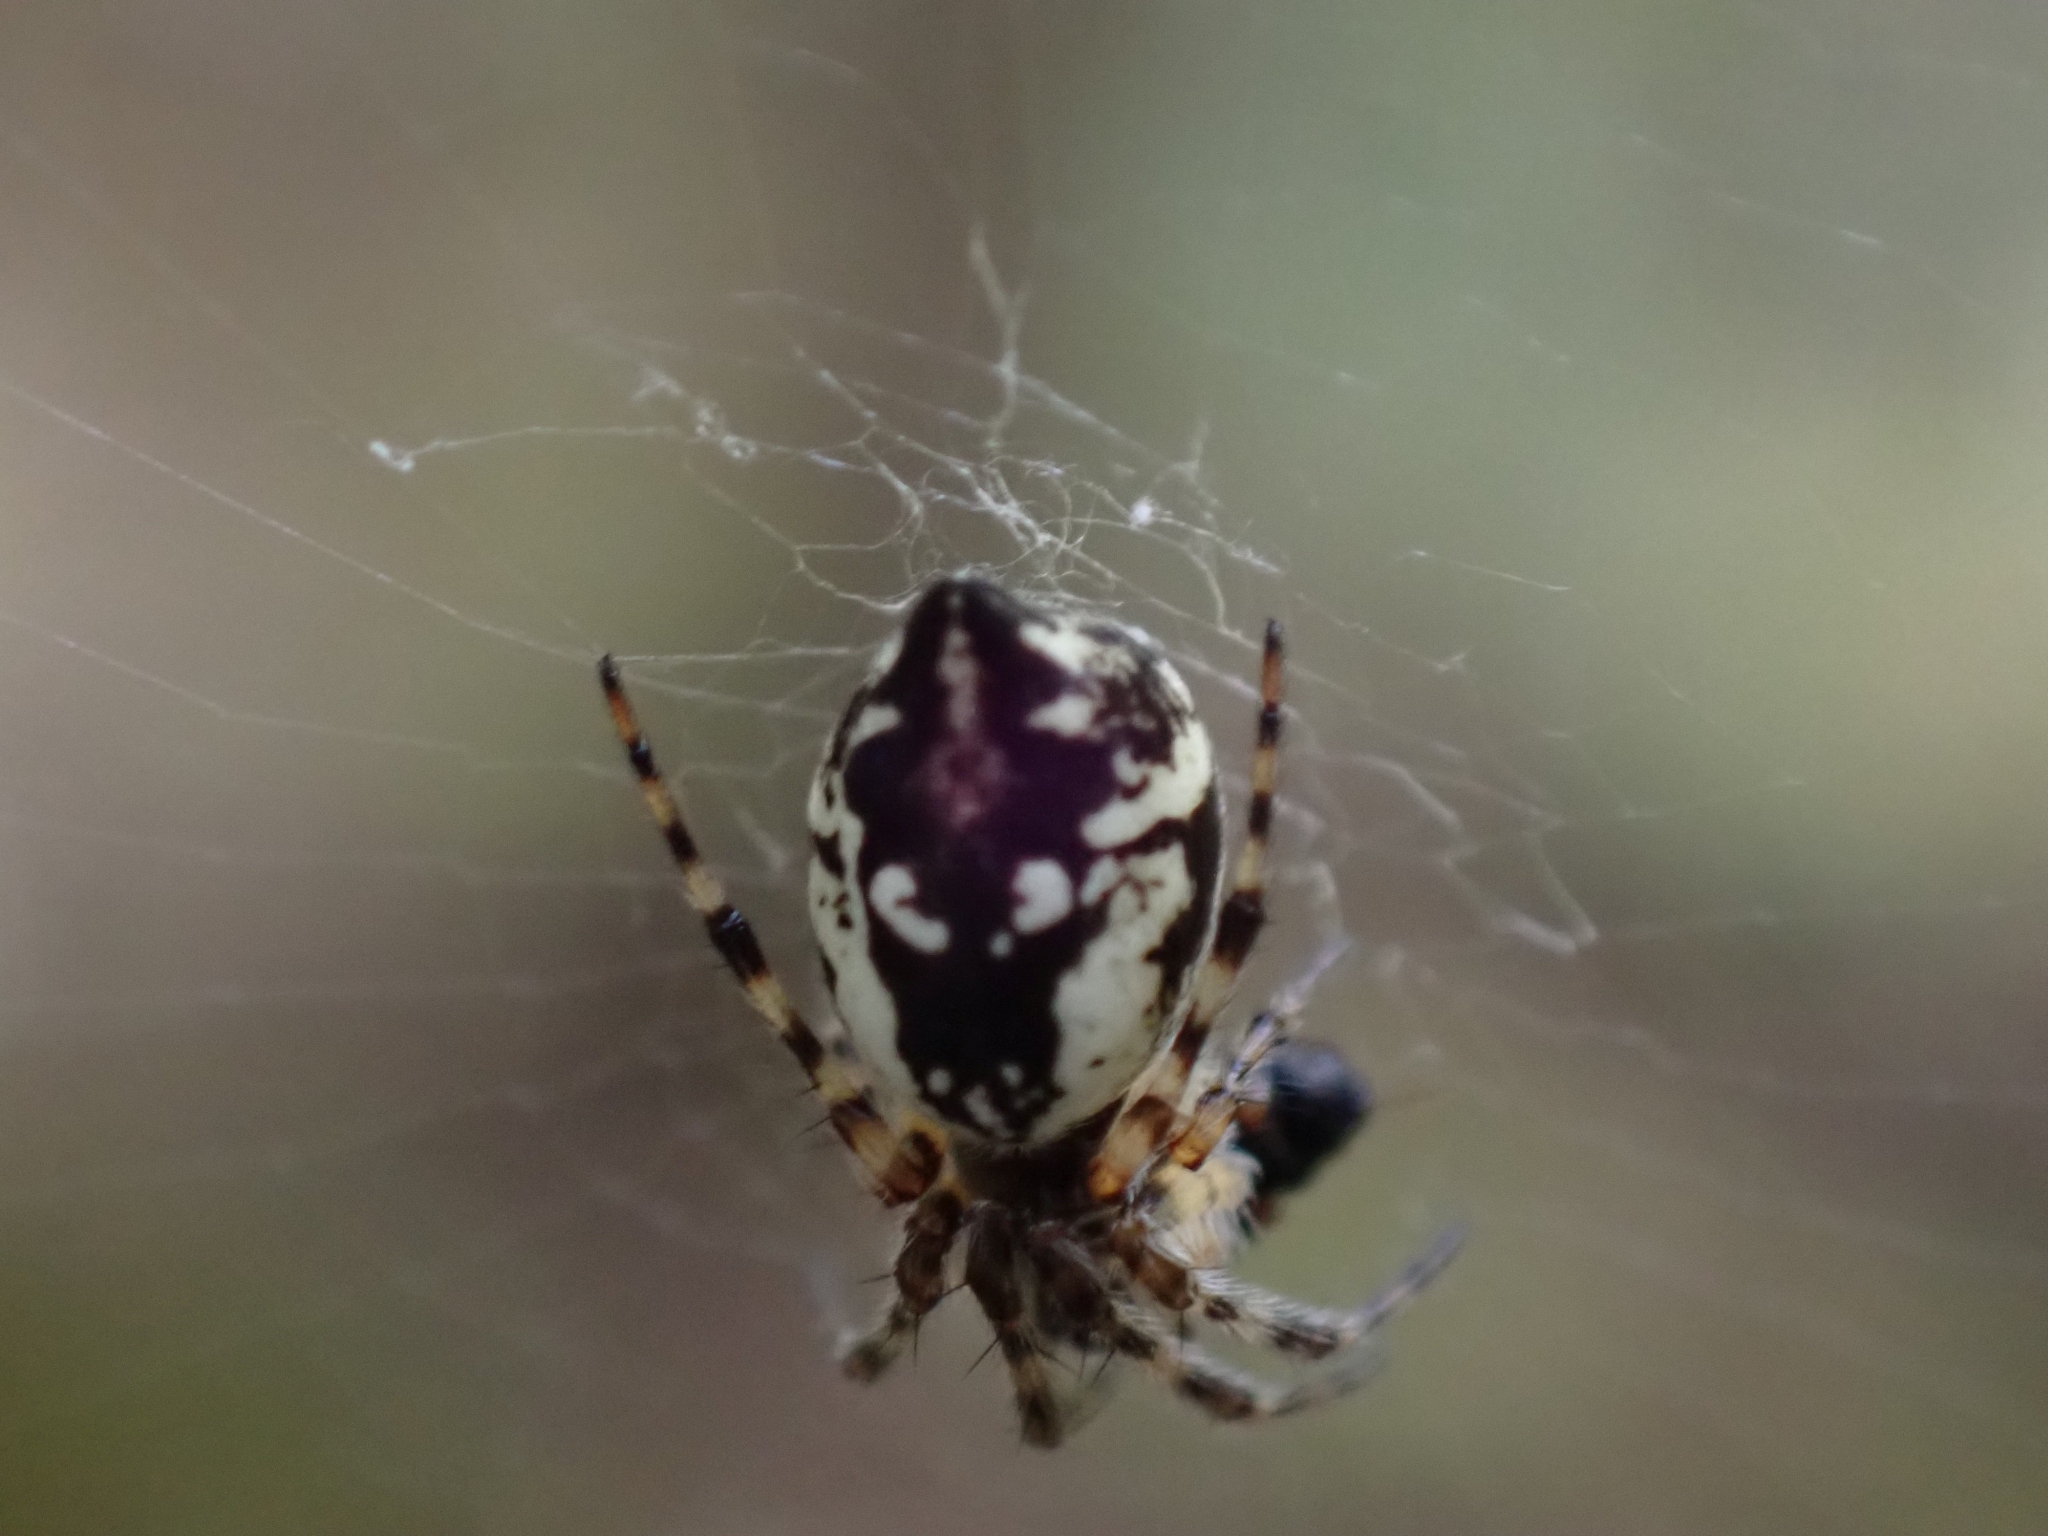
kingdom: Animalia
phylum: Arthropoda
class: Arachnida
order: Araneae
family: Araneidae
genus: Cyclosa
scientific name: Cyclosa conica
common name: Conical trashline orbweaver
